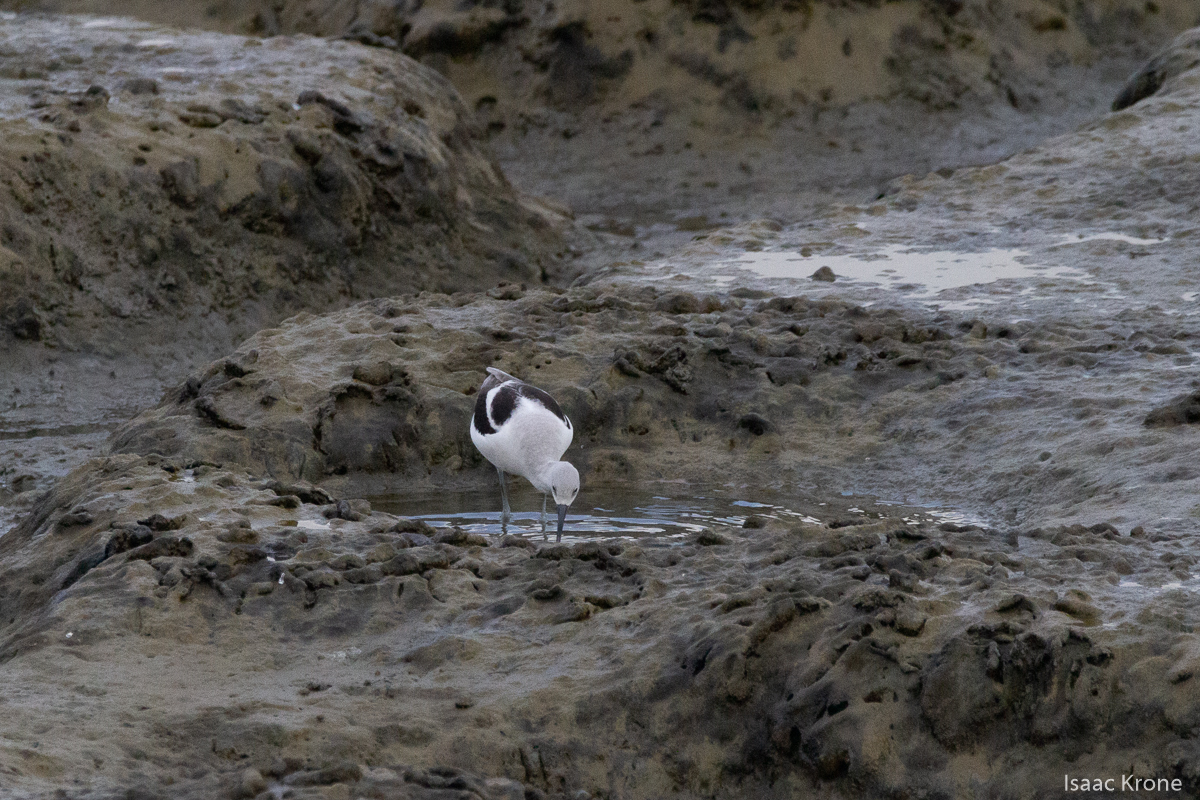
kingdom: Animalia
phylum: Chordata
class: Aves
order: Charadriiformes
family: Recurvirostridae
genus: Recurvirostra
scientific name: Recurvirostra americana
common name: American avocet
